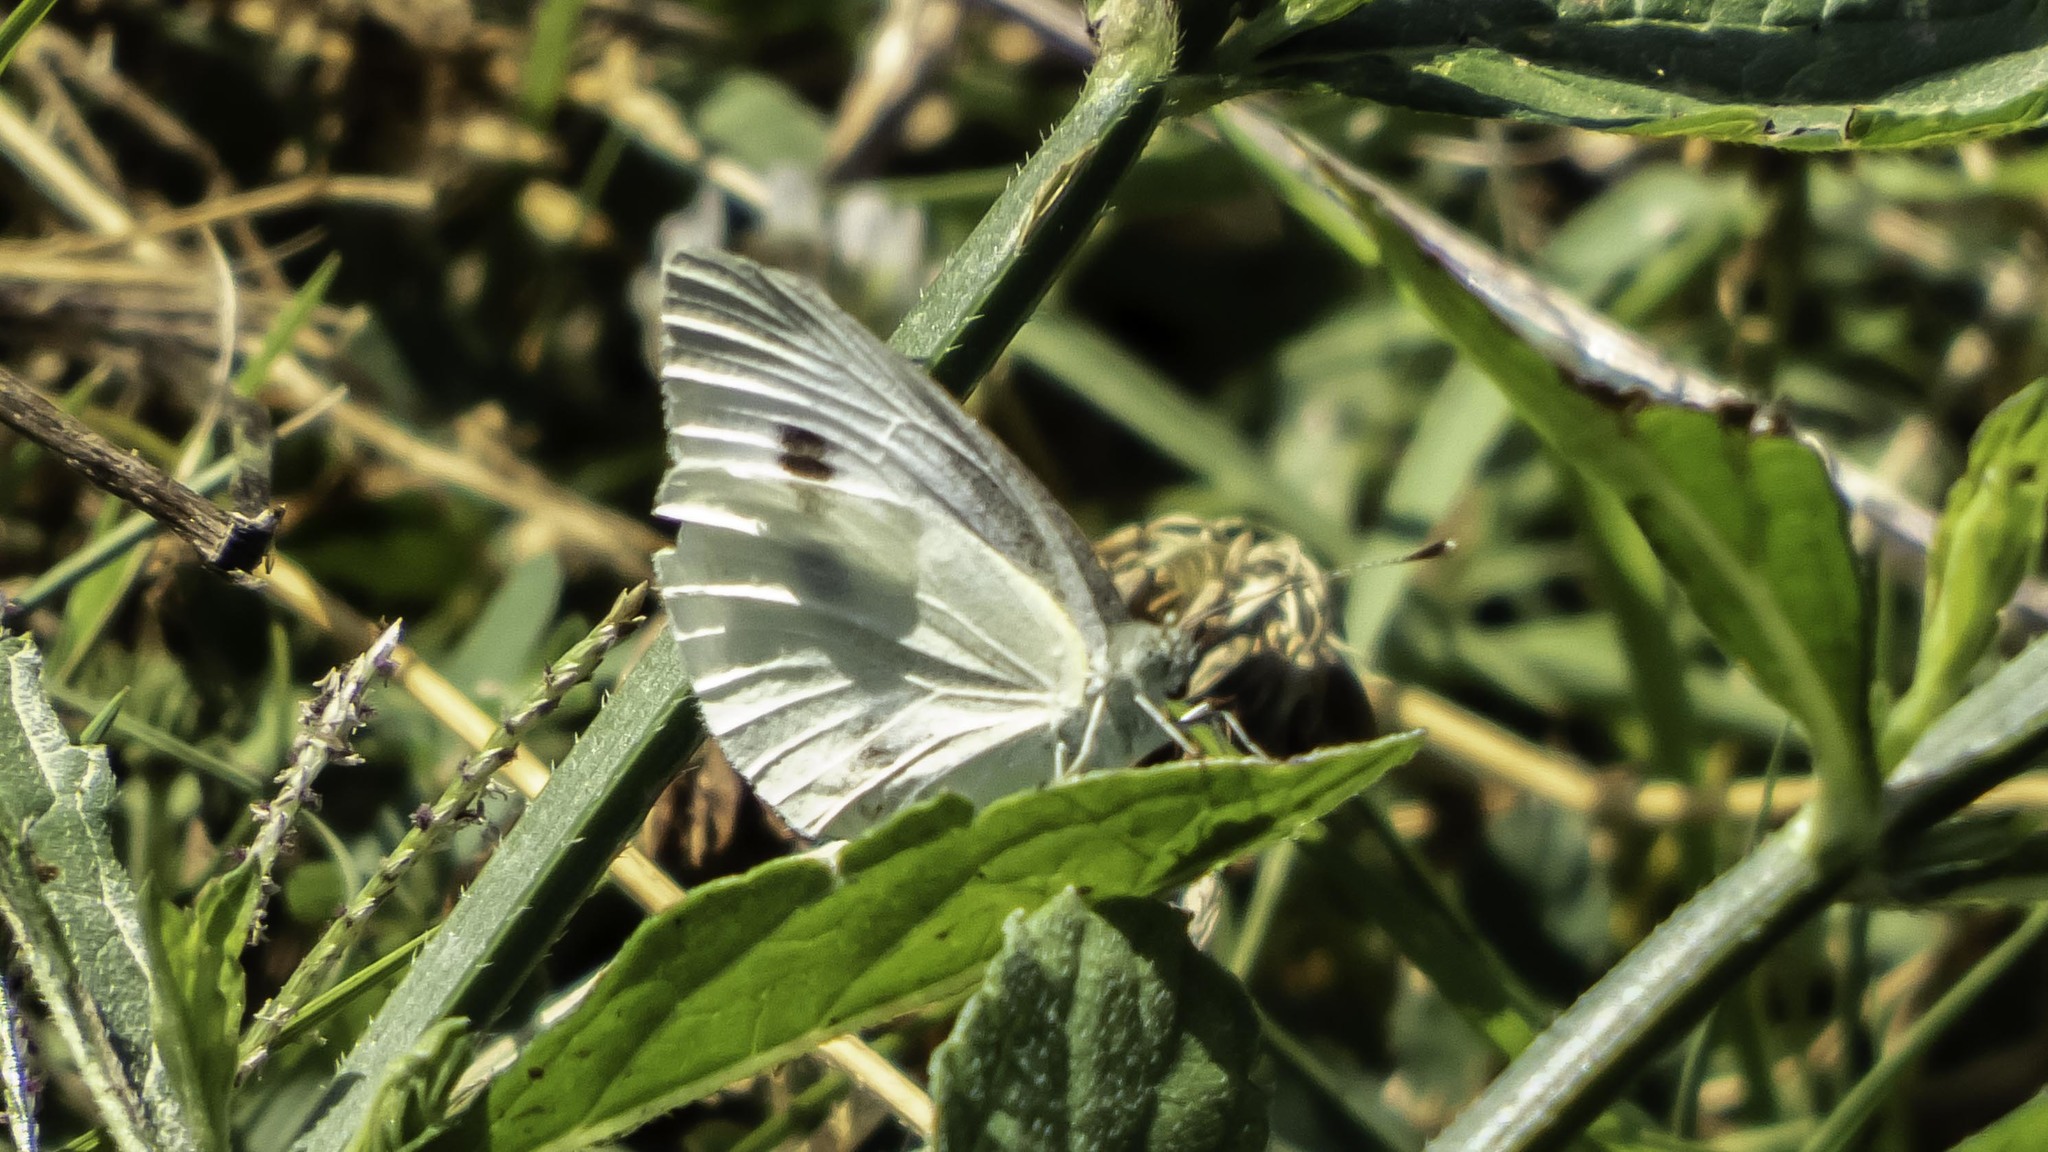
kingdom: Animalia
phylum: Arthropoda
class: Insecta
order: Lepidoptera
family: Pieridae
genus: Pieris
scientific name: Pieris rapae
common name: Small white
